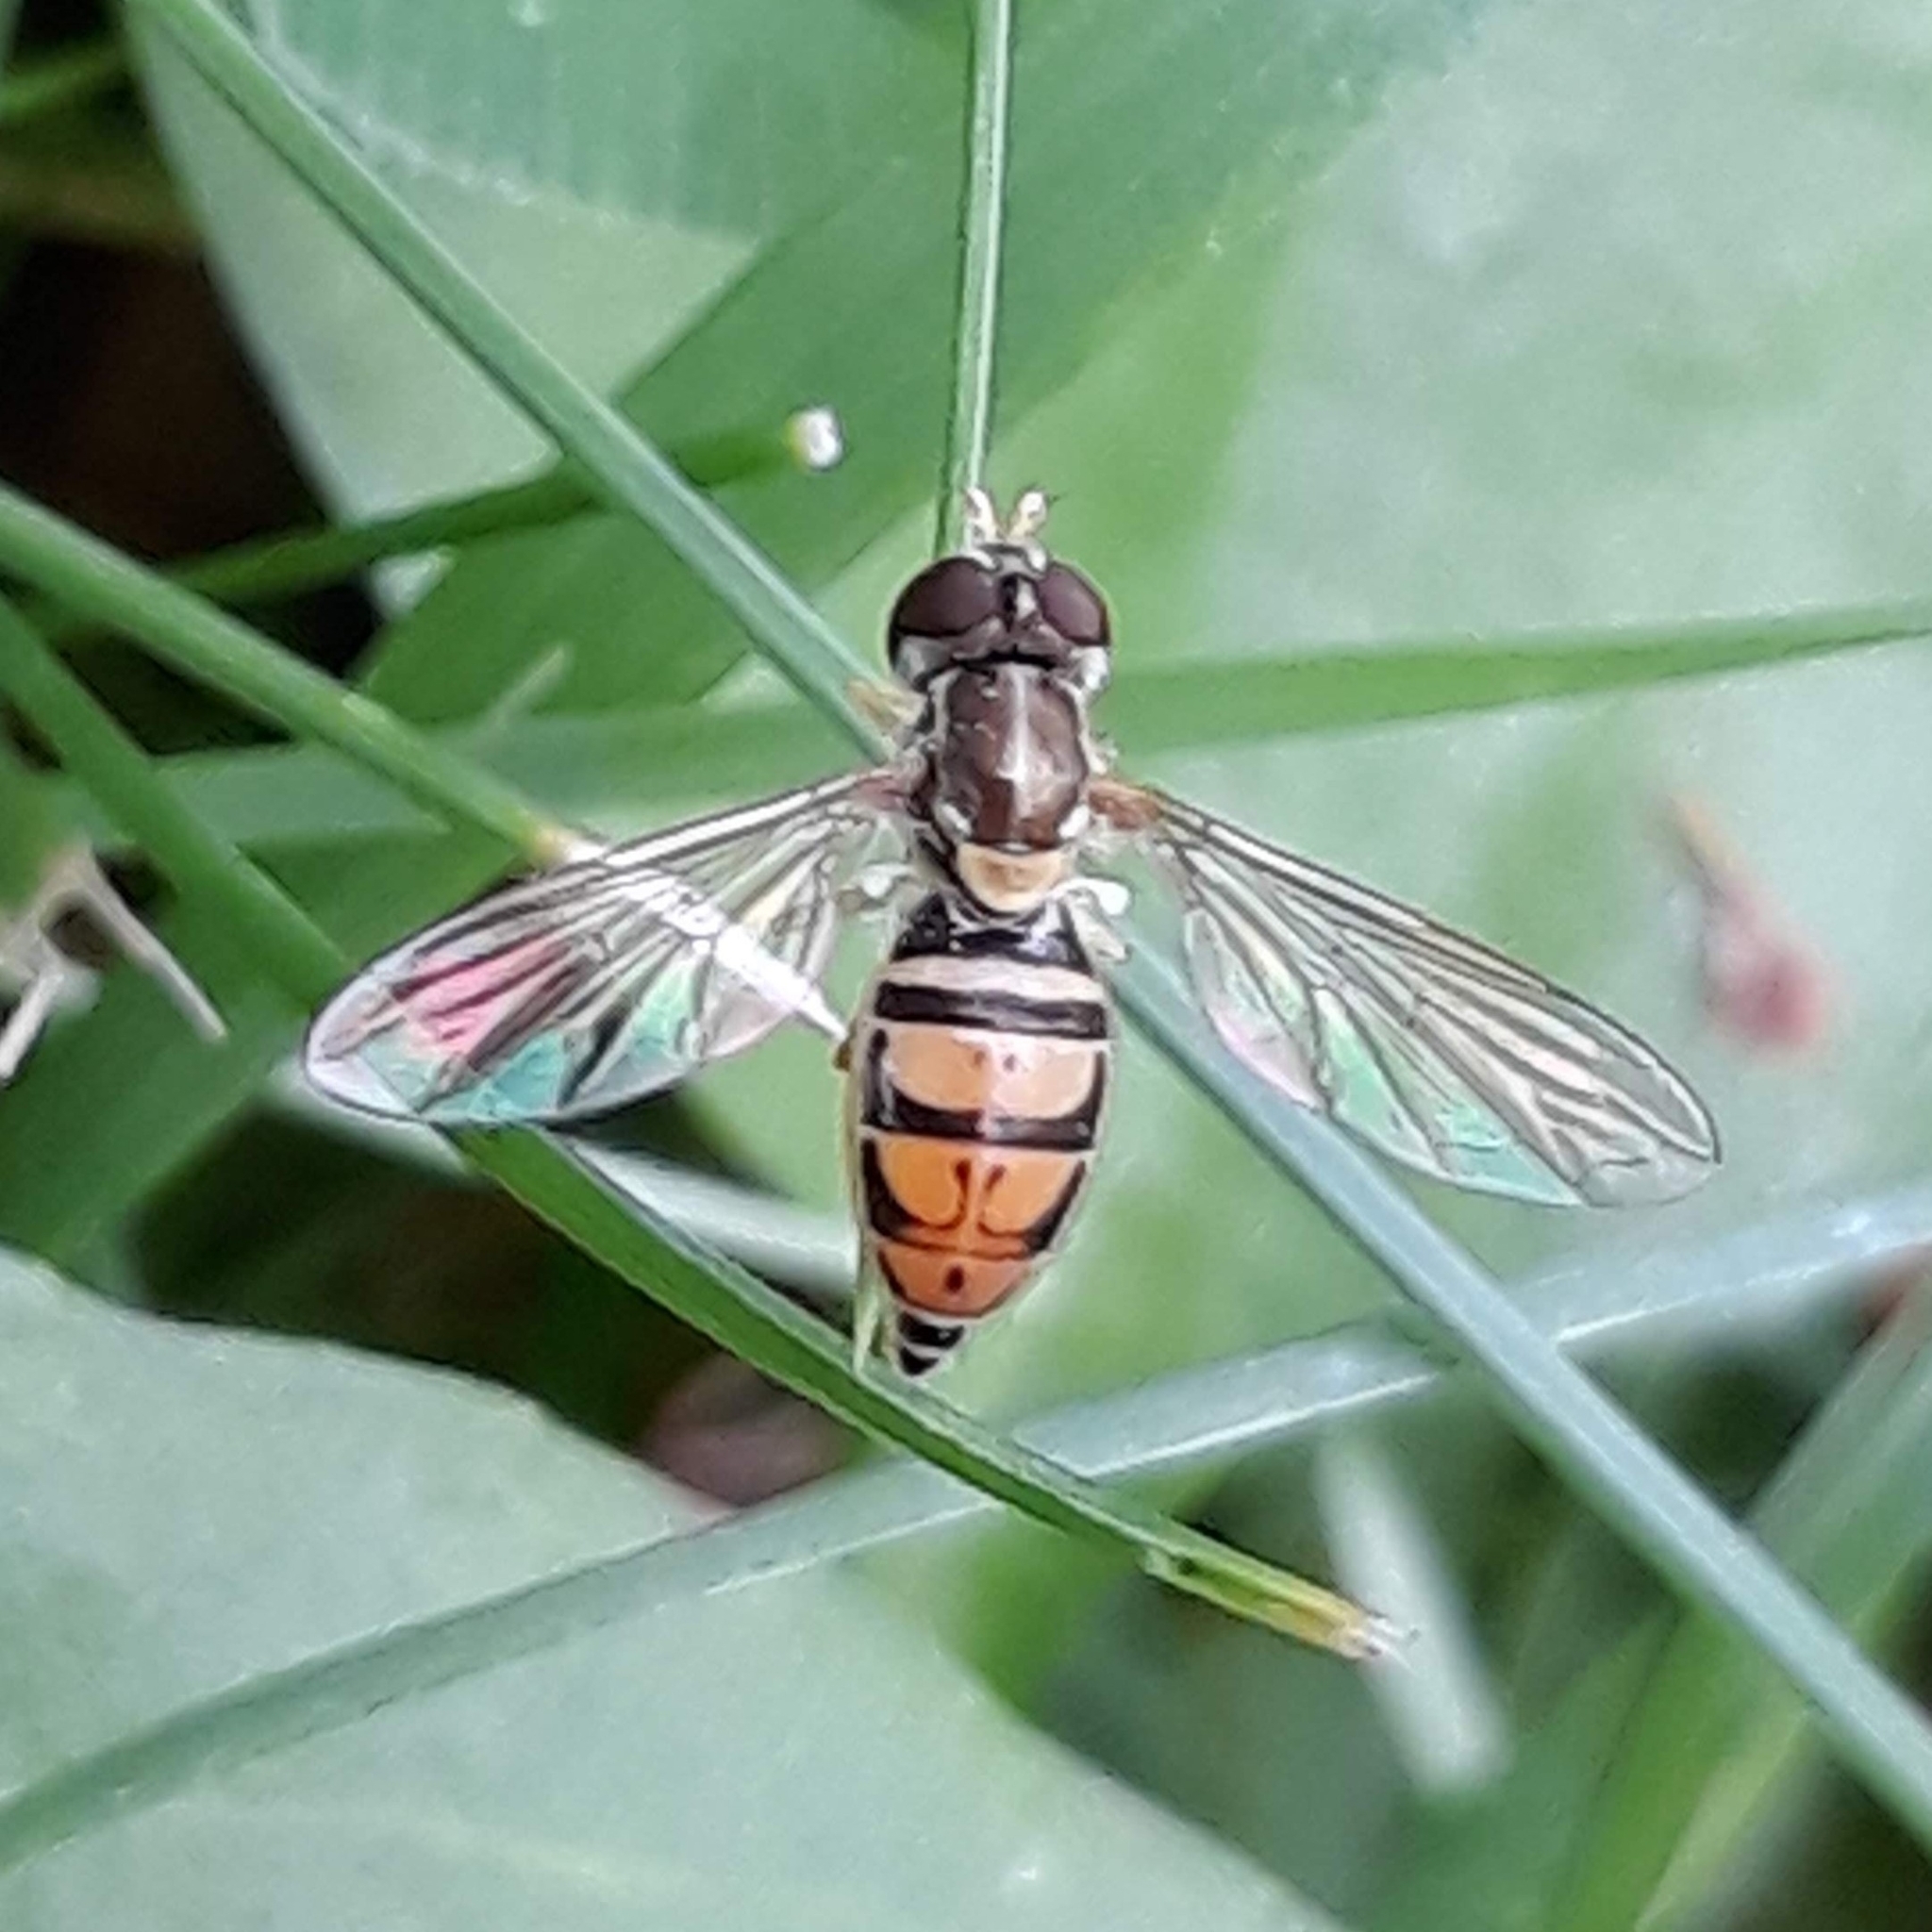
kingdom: Animalia
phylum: Arthropoda
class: Insecta
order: Diptera
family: Syrphidae
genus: Toxomerus
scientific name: Toxomerus marginatus
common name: Syrphid fly
